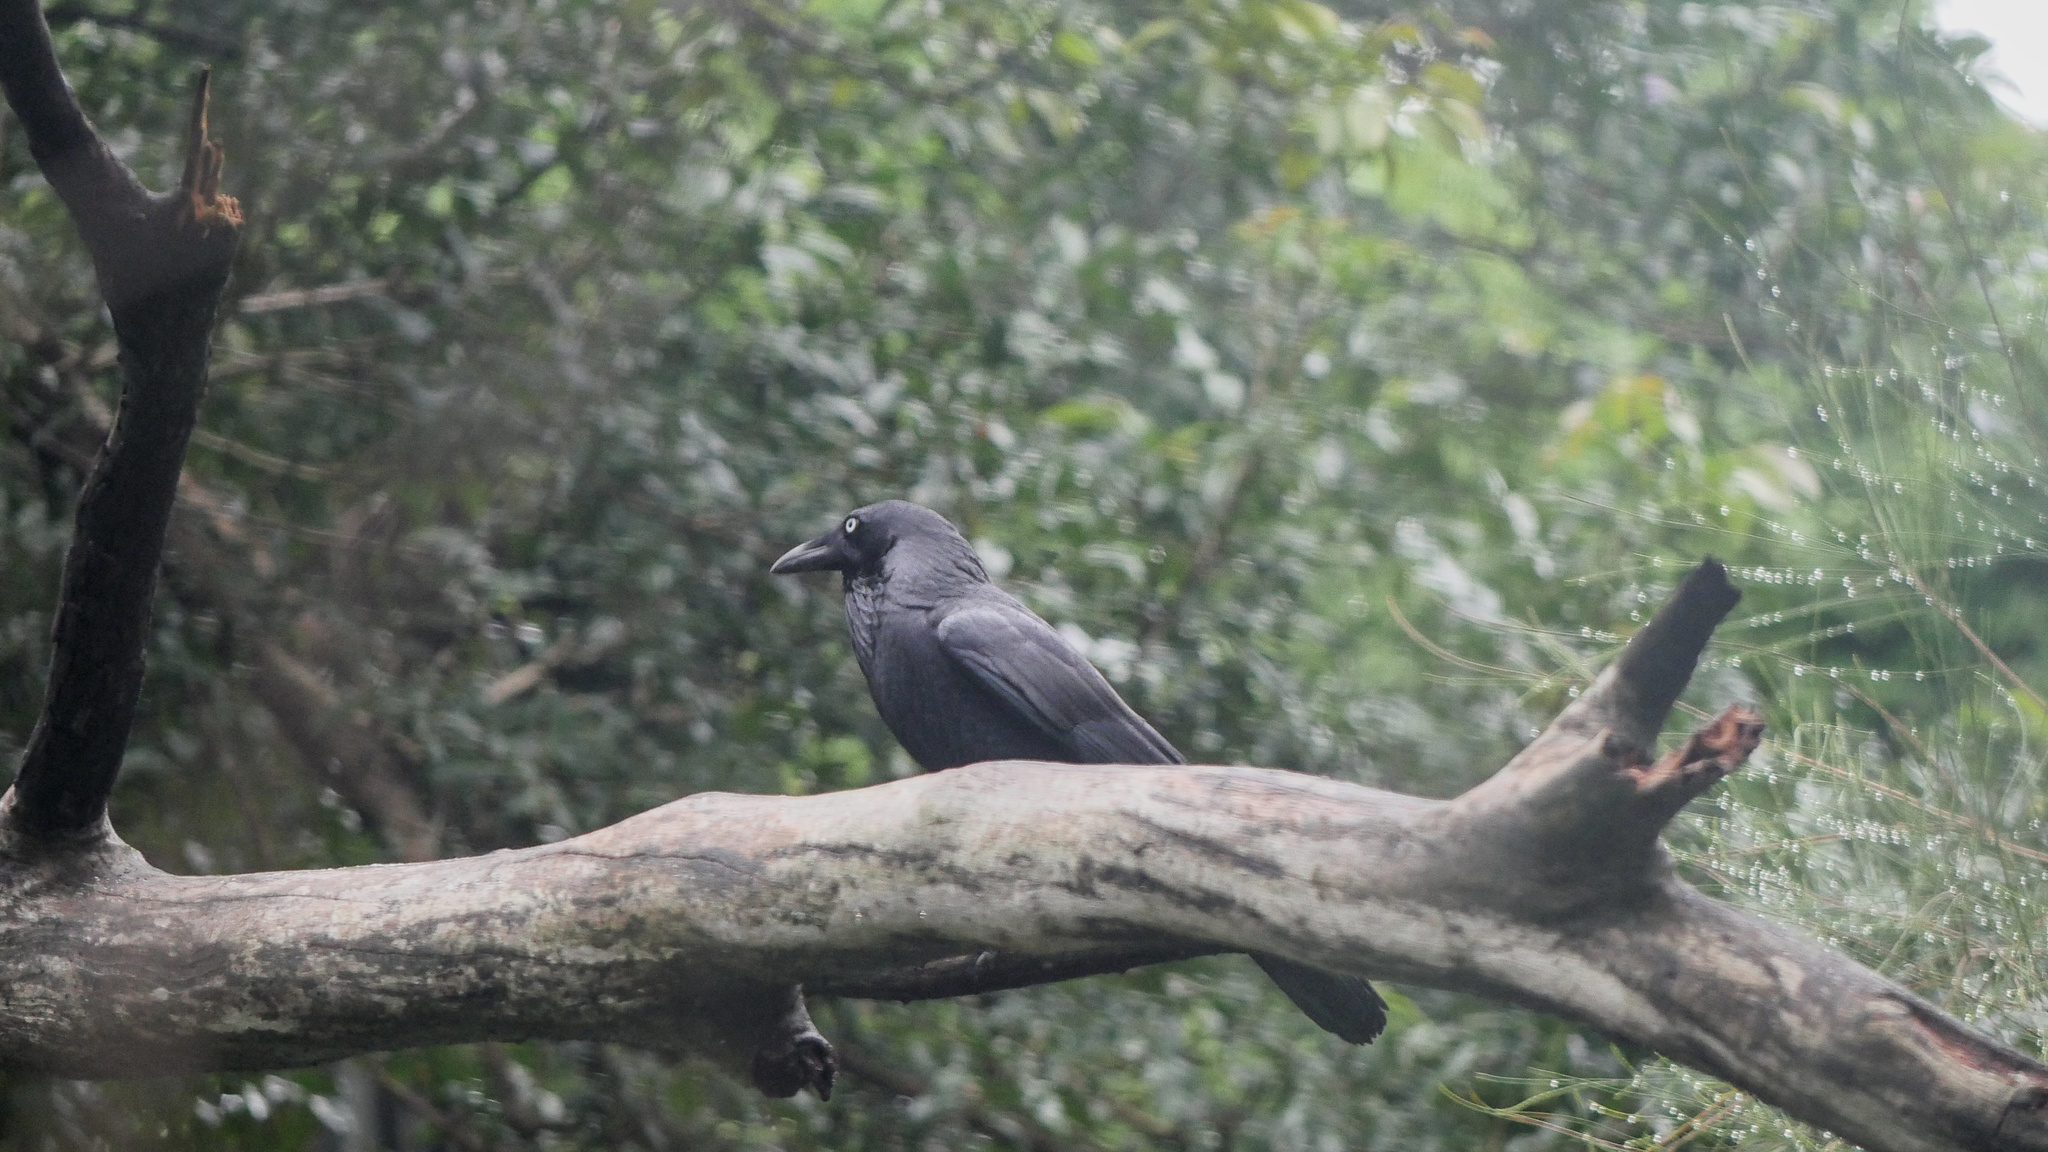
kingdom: Animalia
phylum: Chordata
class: Aves
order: Passeriformes
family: Corvidae
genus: Corvus
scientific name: Corvus coronoides
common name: Australian raven
